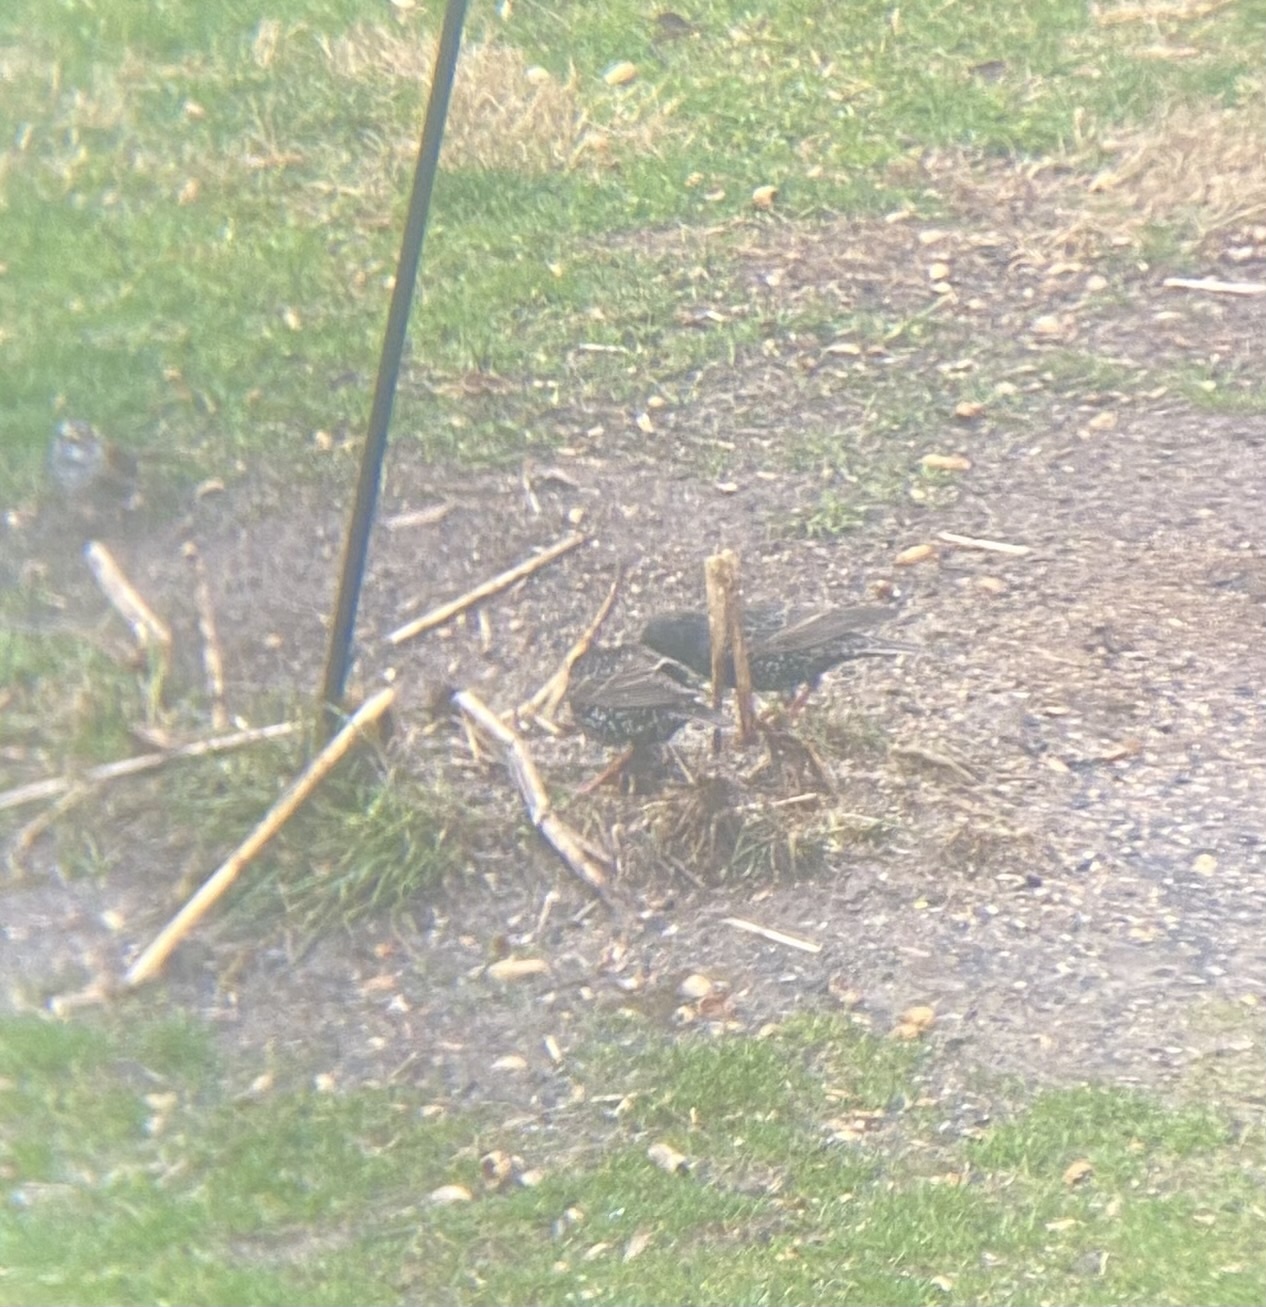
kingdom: Animalia
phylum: Chordata
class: Aves
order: Passeriformes
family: Sturnidae
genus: Sturnus
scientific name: Sturnus vulgaris
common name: Common starling
